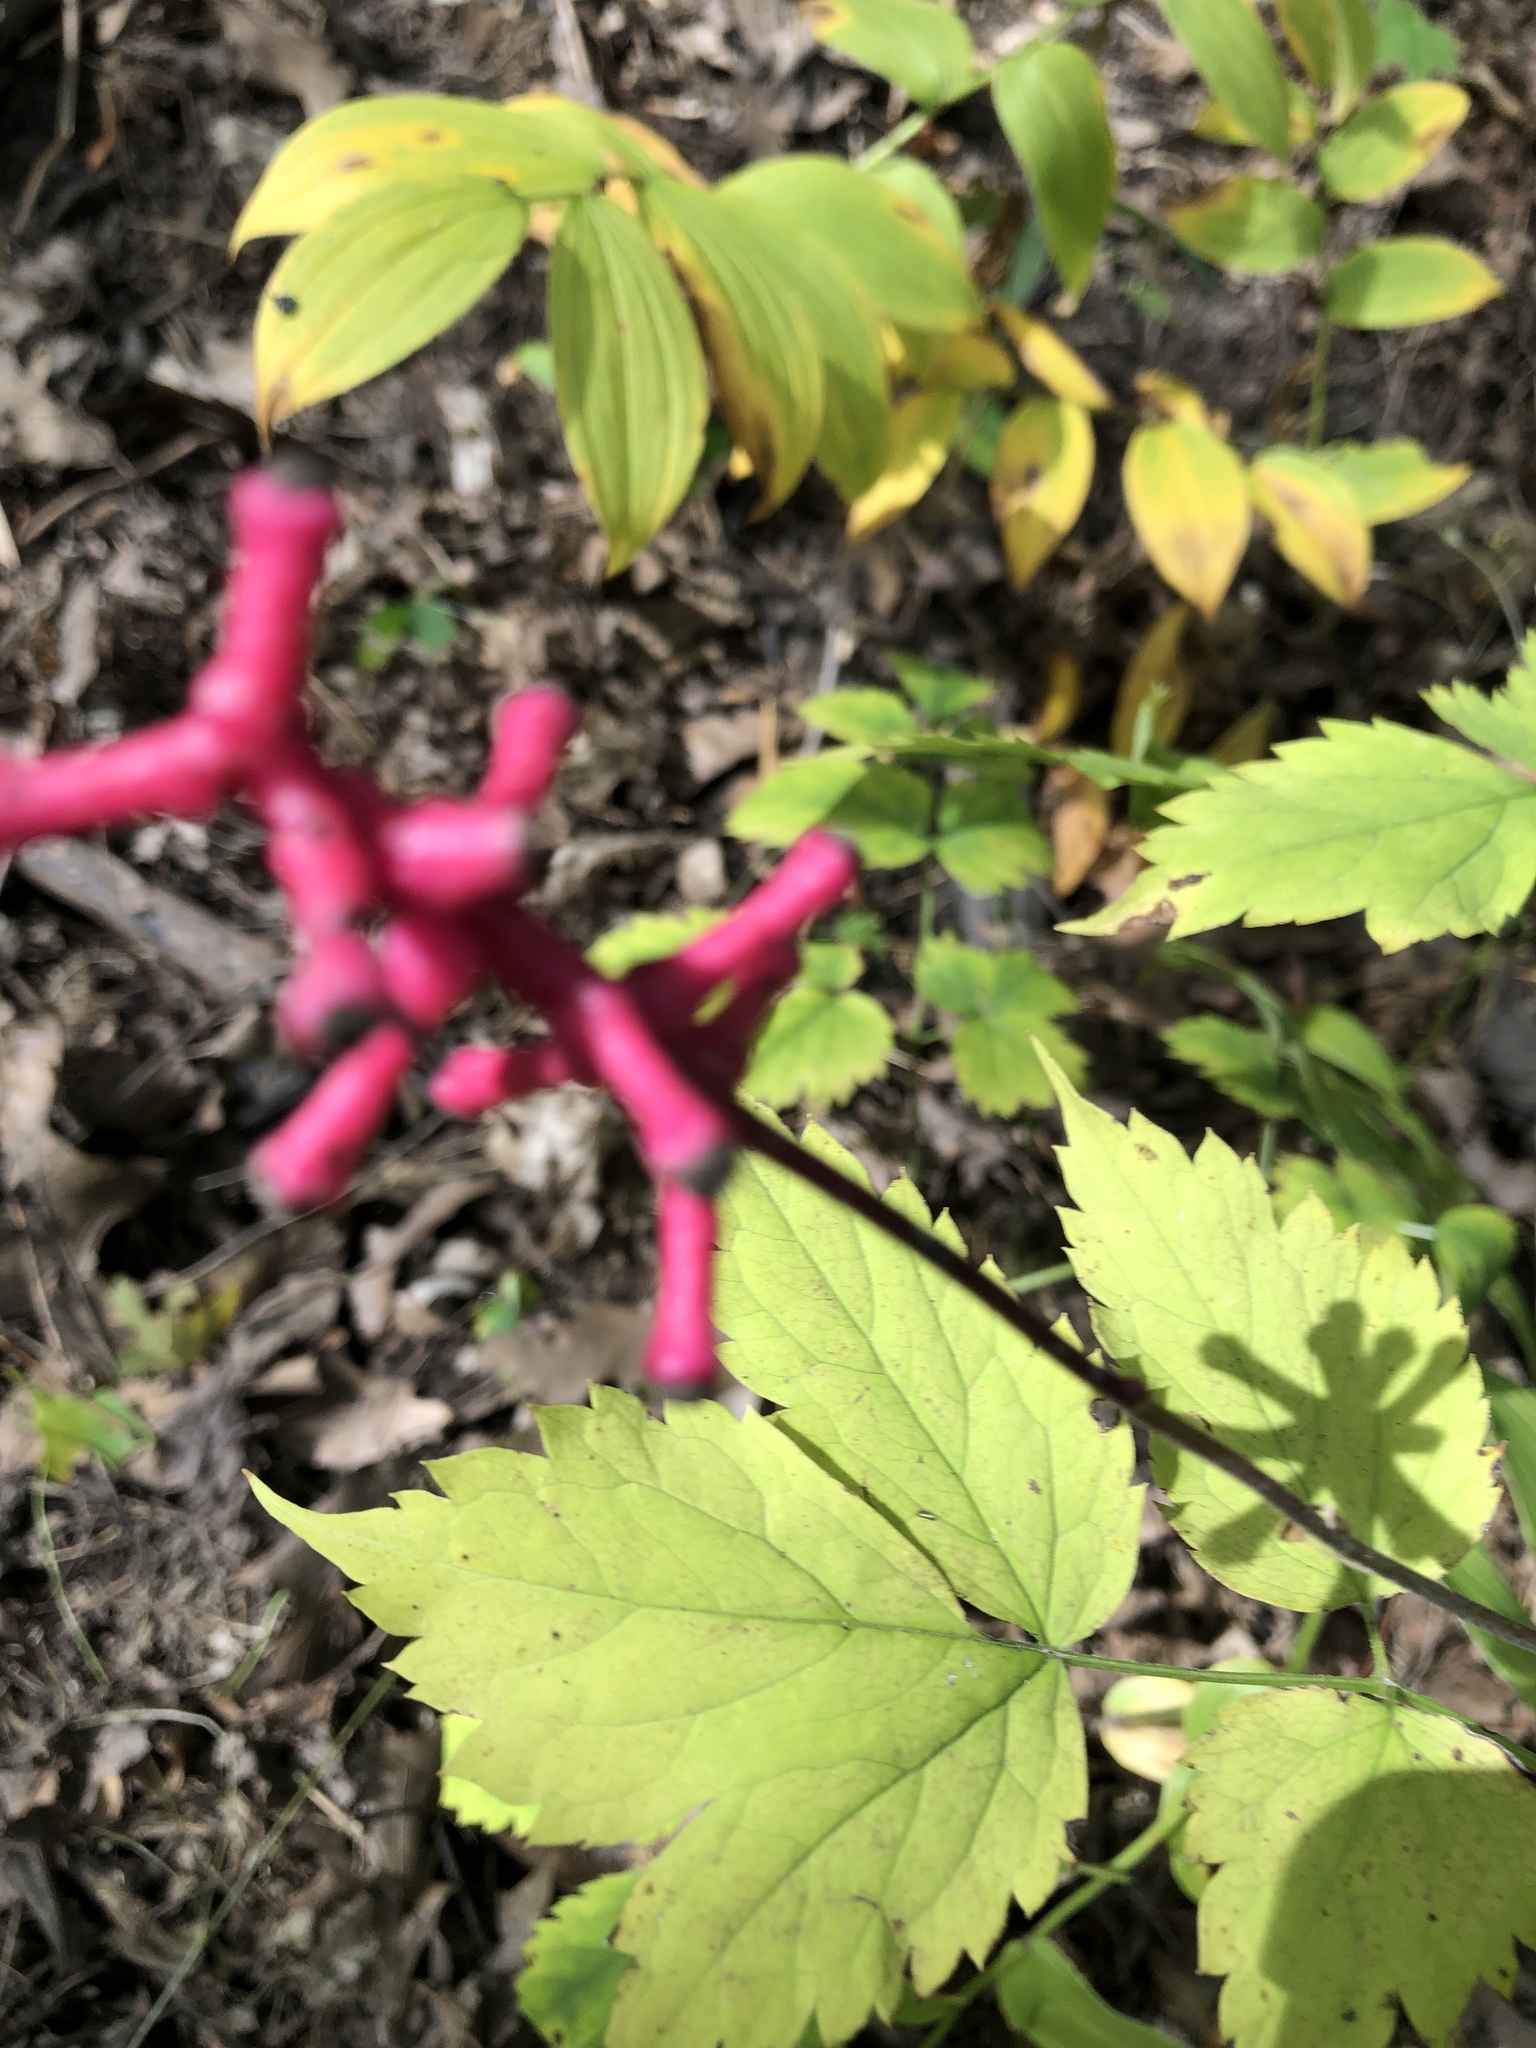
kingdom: Plantae
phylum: Tracheophyta
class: Magnoliopsida
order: Ranunculales
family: Ranunculaceae
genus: Actaea
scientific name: Actaea pachypoda
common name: Doll's-eyes
